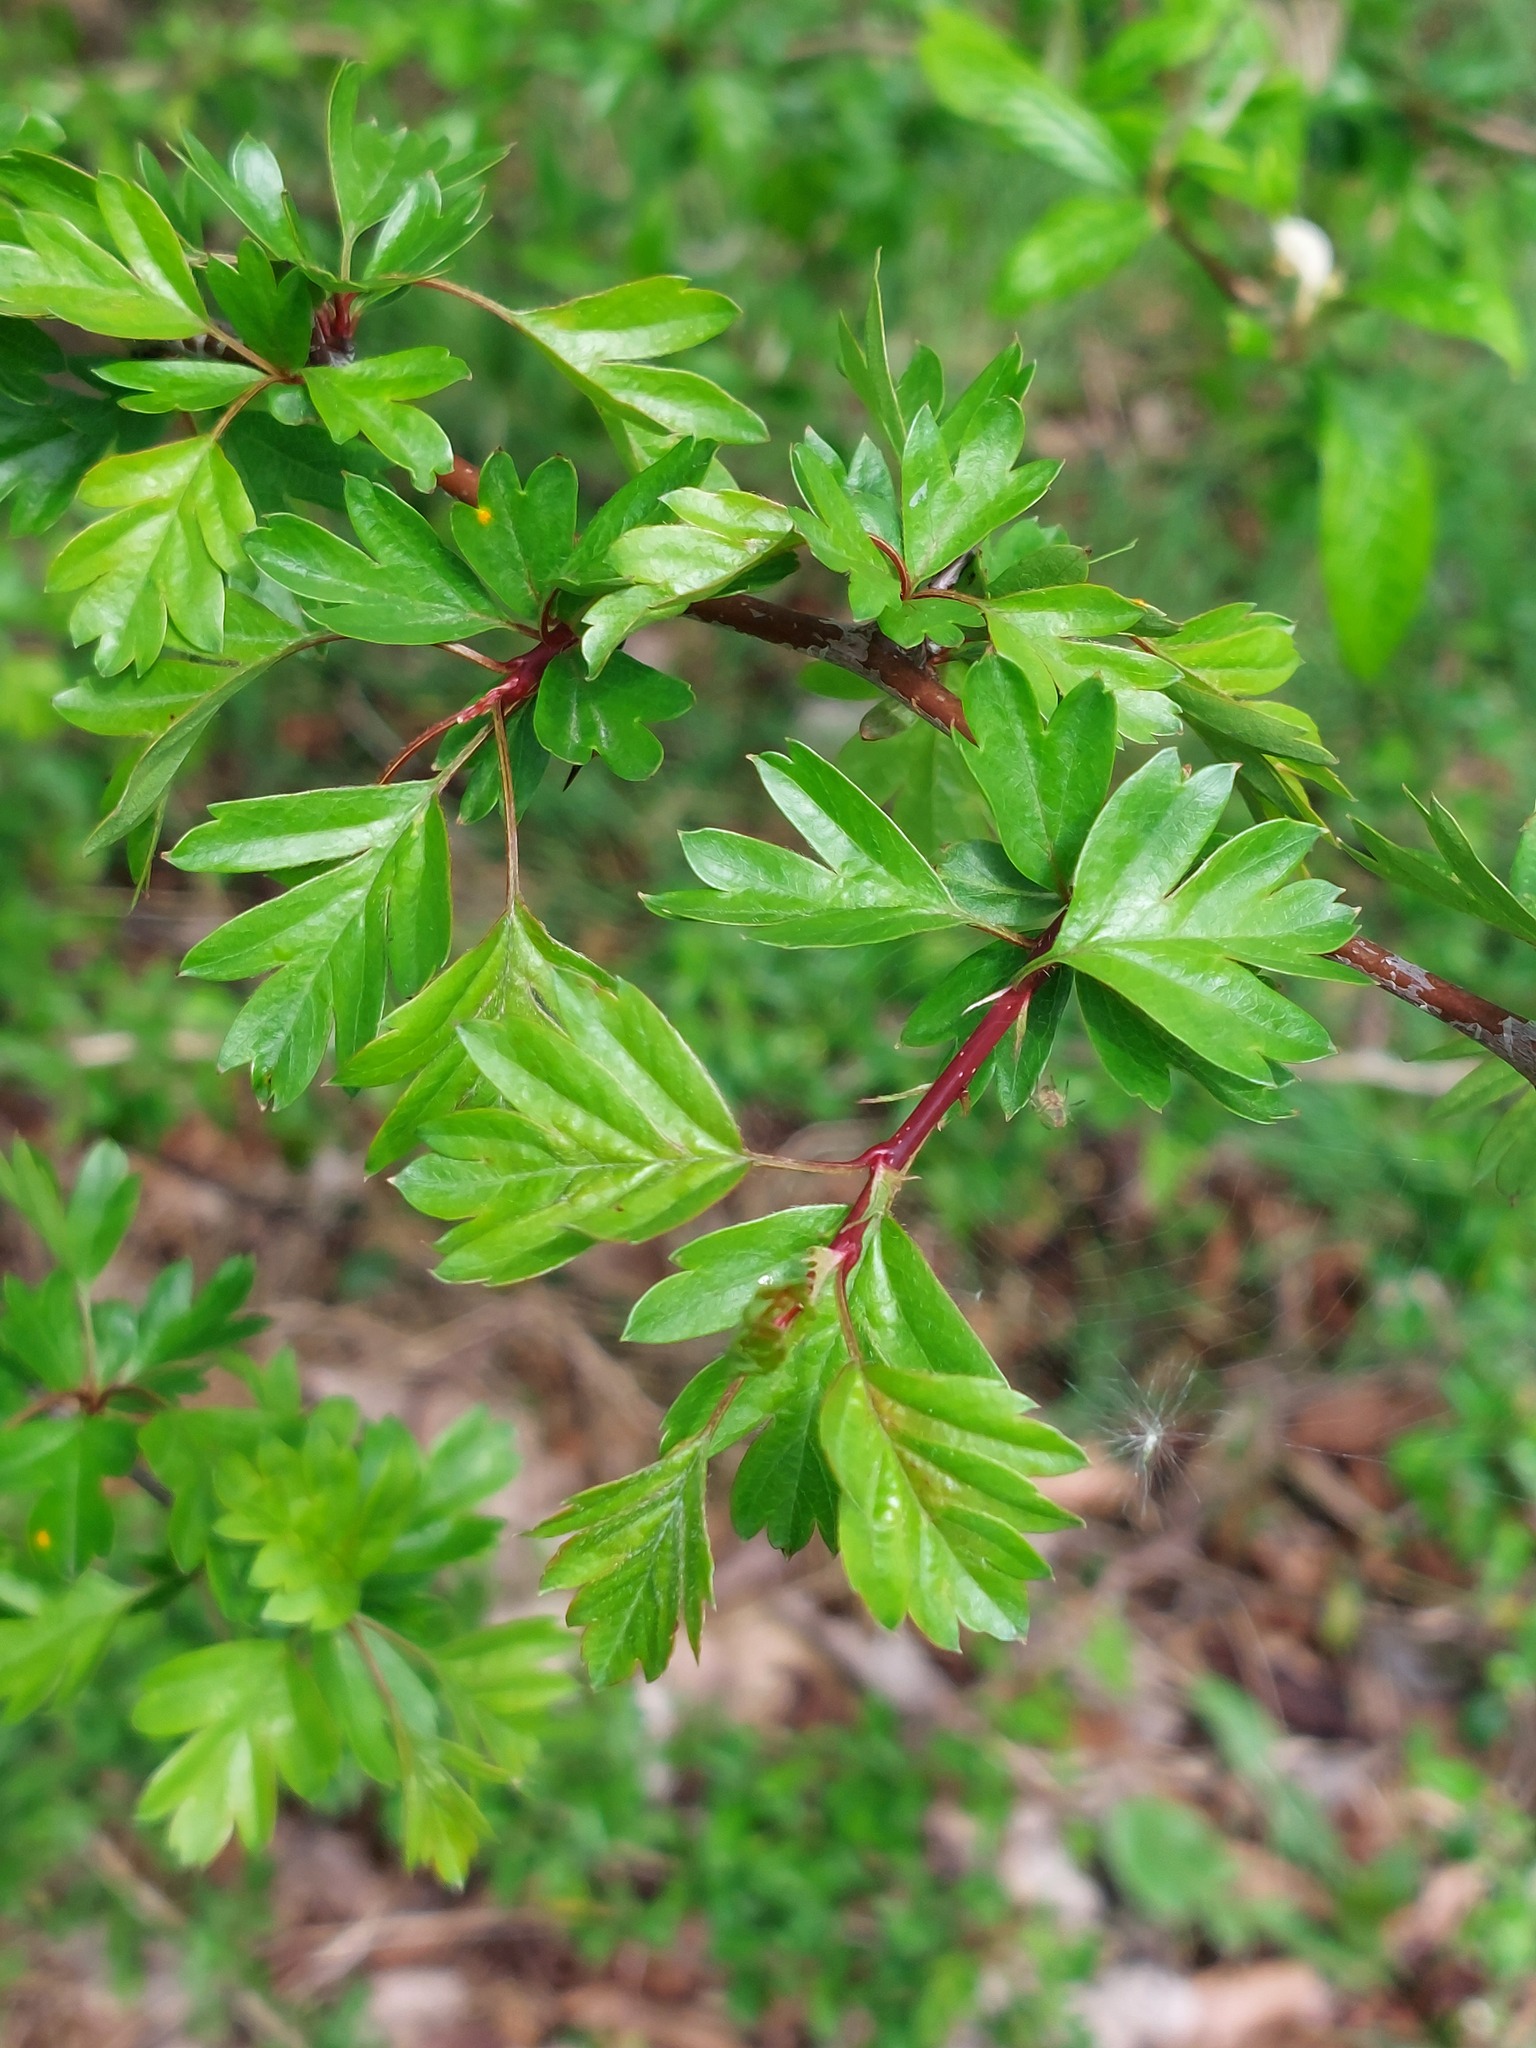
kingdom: Plantae
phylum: Tracheophyta
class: Magnoliopsida
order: Rosales
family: Rosaceae
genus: Crataegus
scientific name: Crataegus monogyna
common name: Hawthorn
